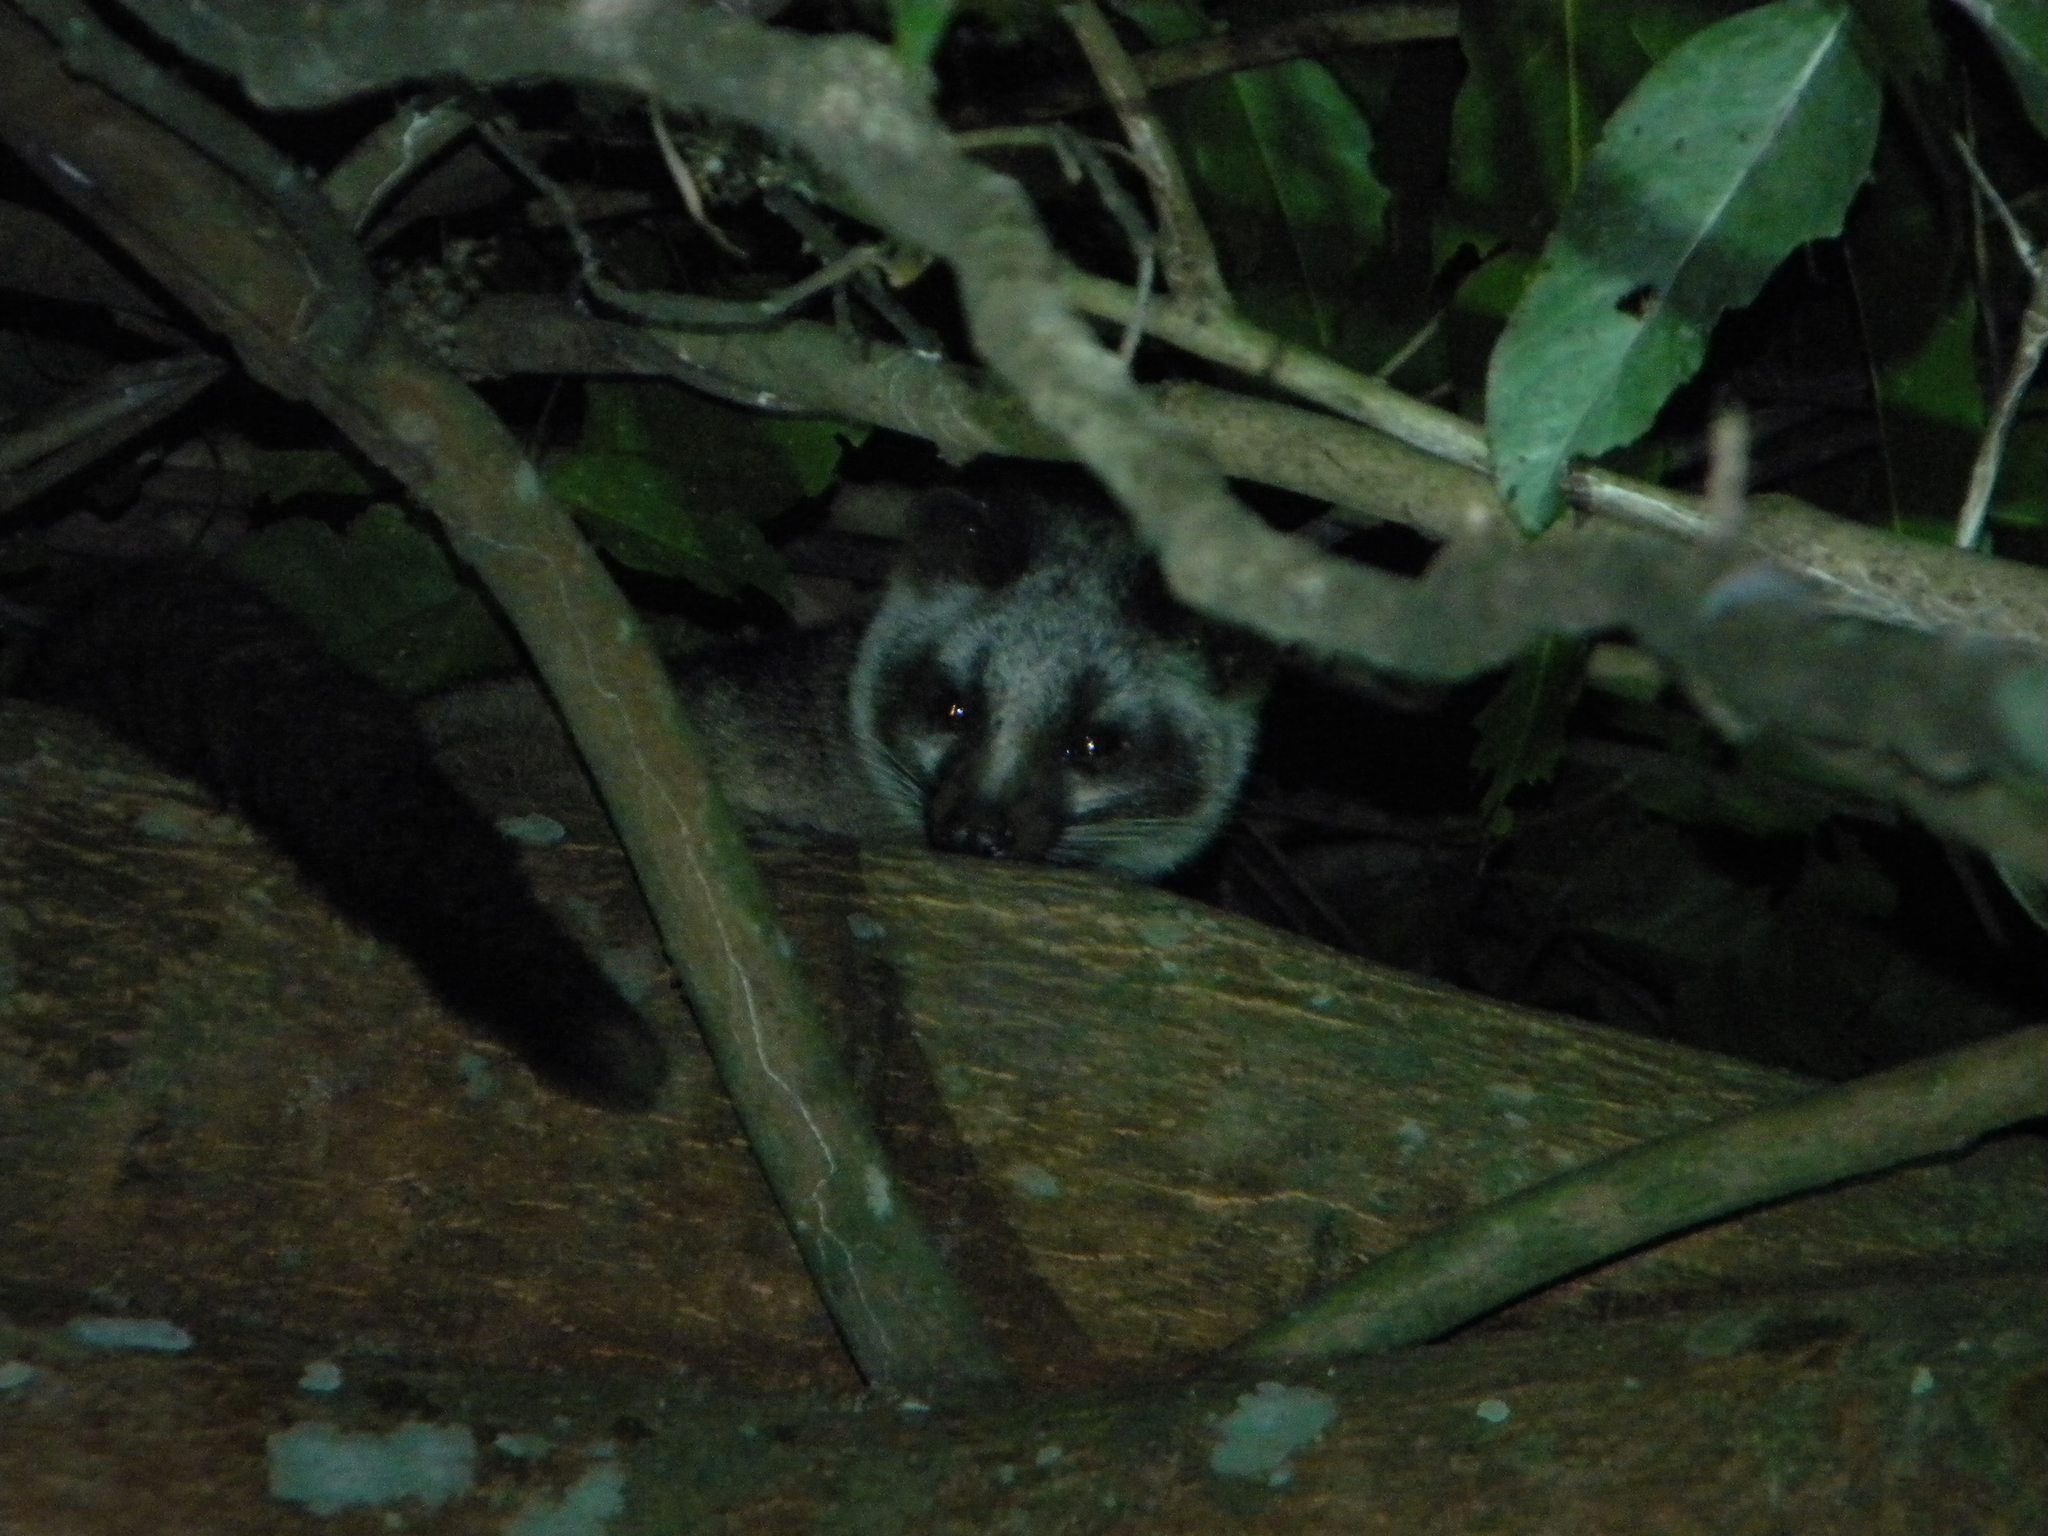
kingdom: Animalia
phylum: Chordata
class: Mammalia
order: Carnivora
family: Viverridae
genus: Paguma
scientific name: Paguma larvata
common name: Masked palm civet
